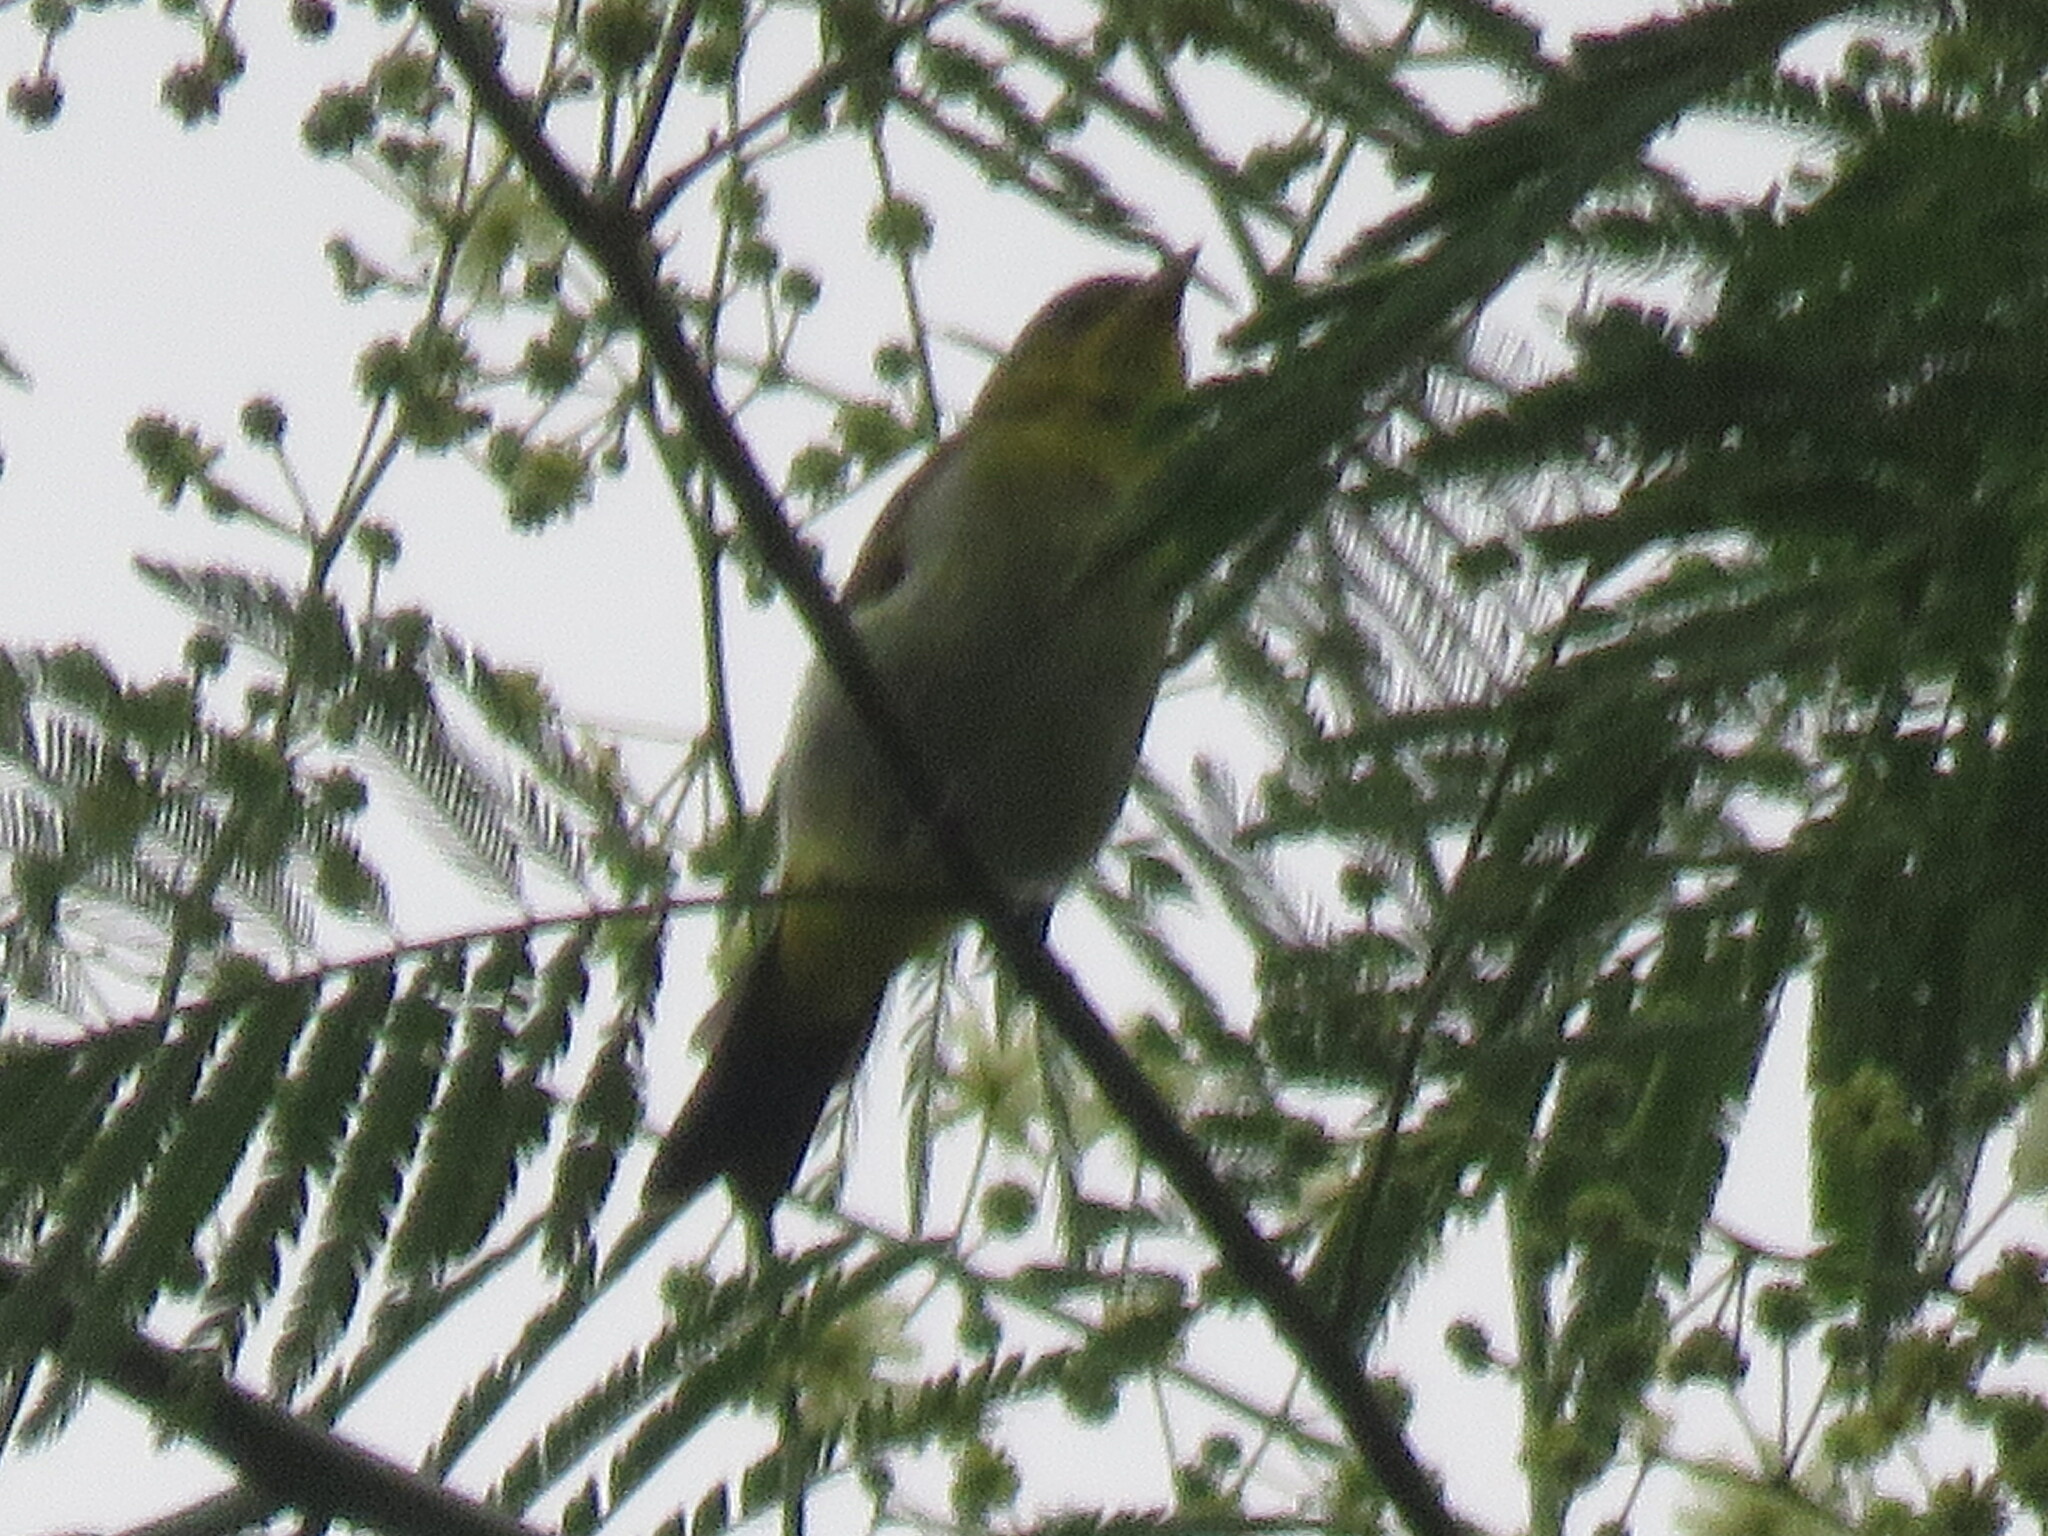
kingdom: Animalia
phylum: Chordata
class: Aves
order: Passeriformes
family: Thraupidae
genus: Hemithraupis
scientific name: Hemithraupis flavicollis
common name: Yellow-backed tanager
